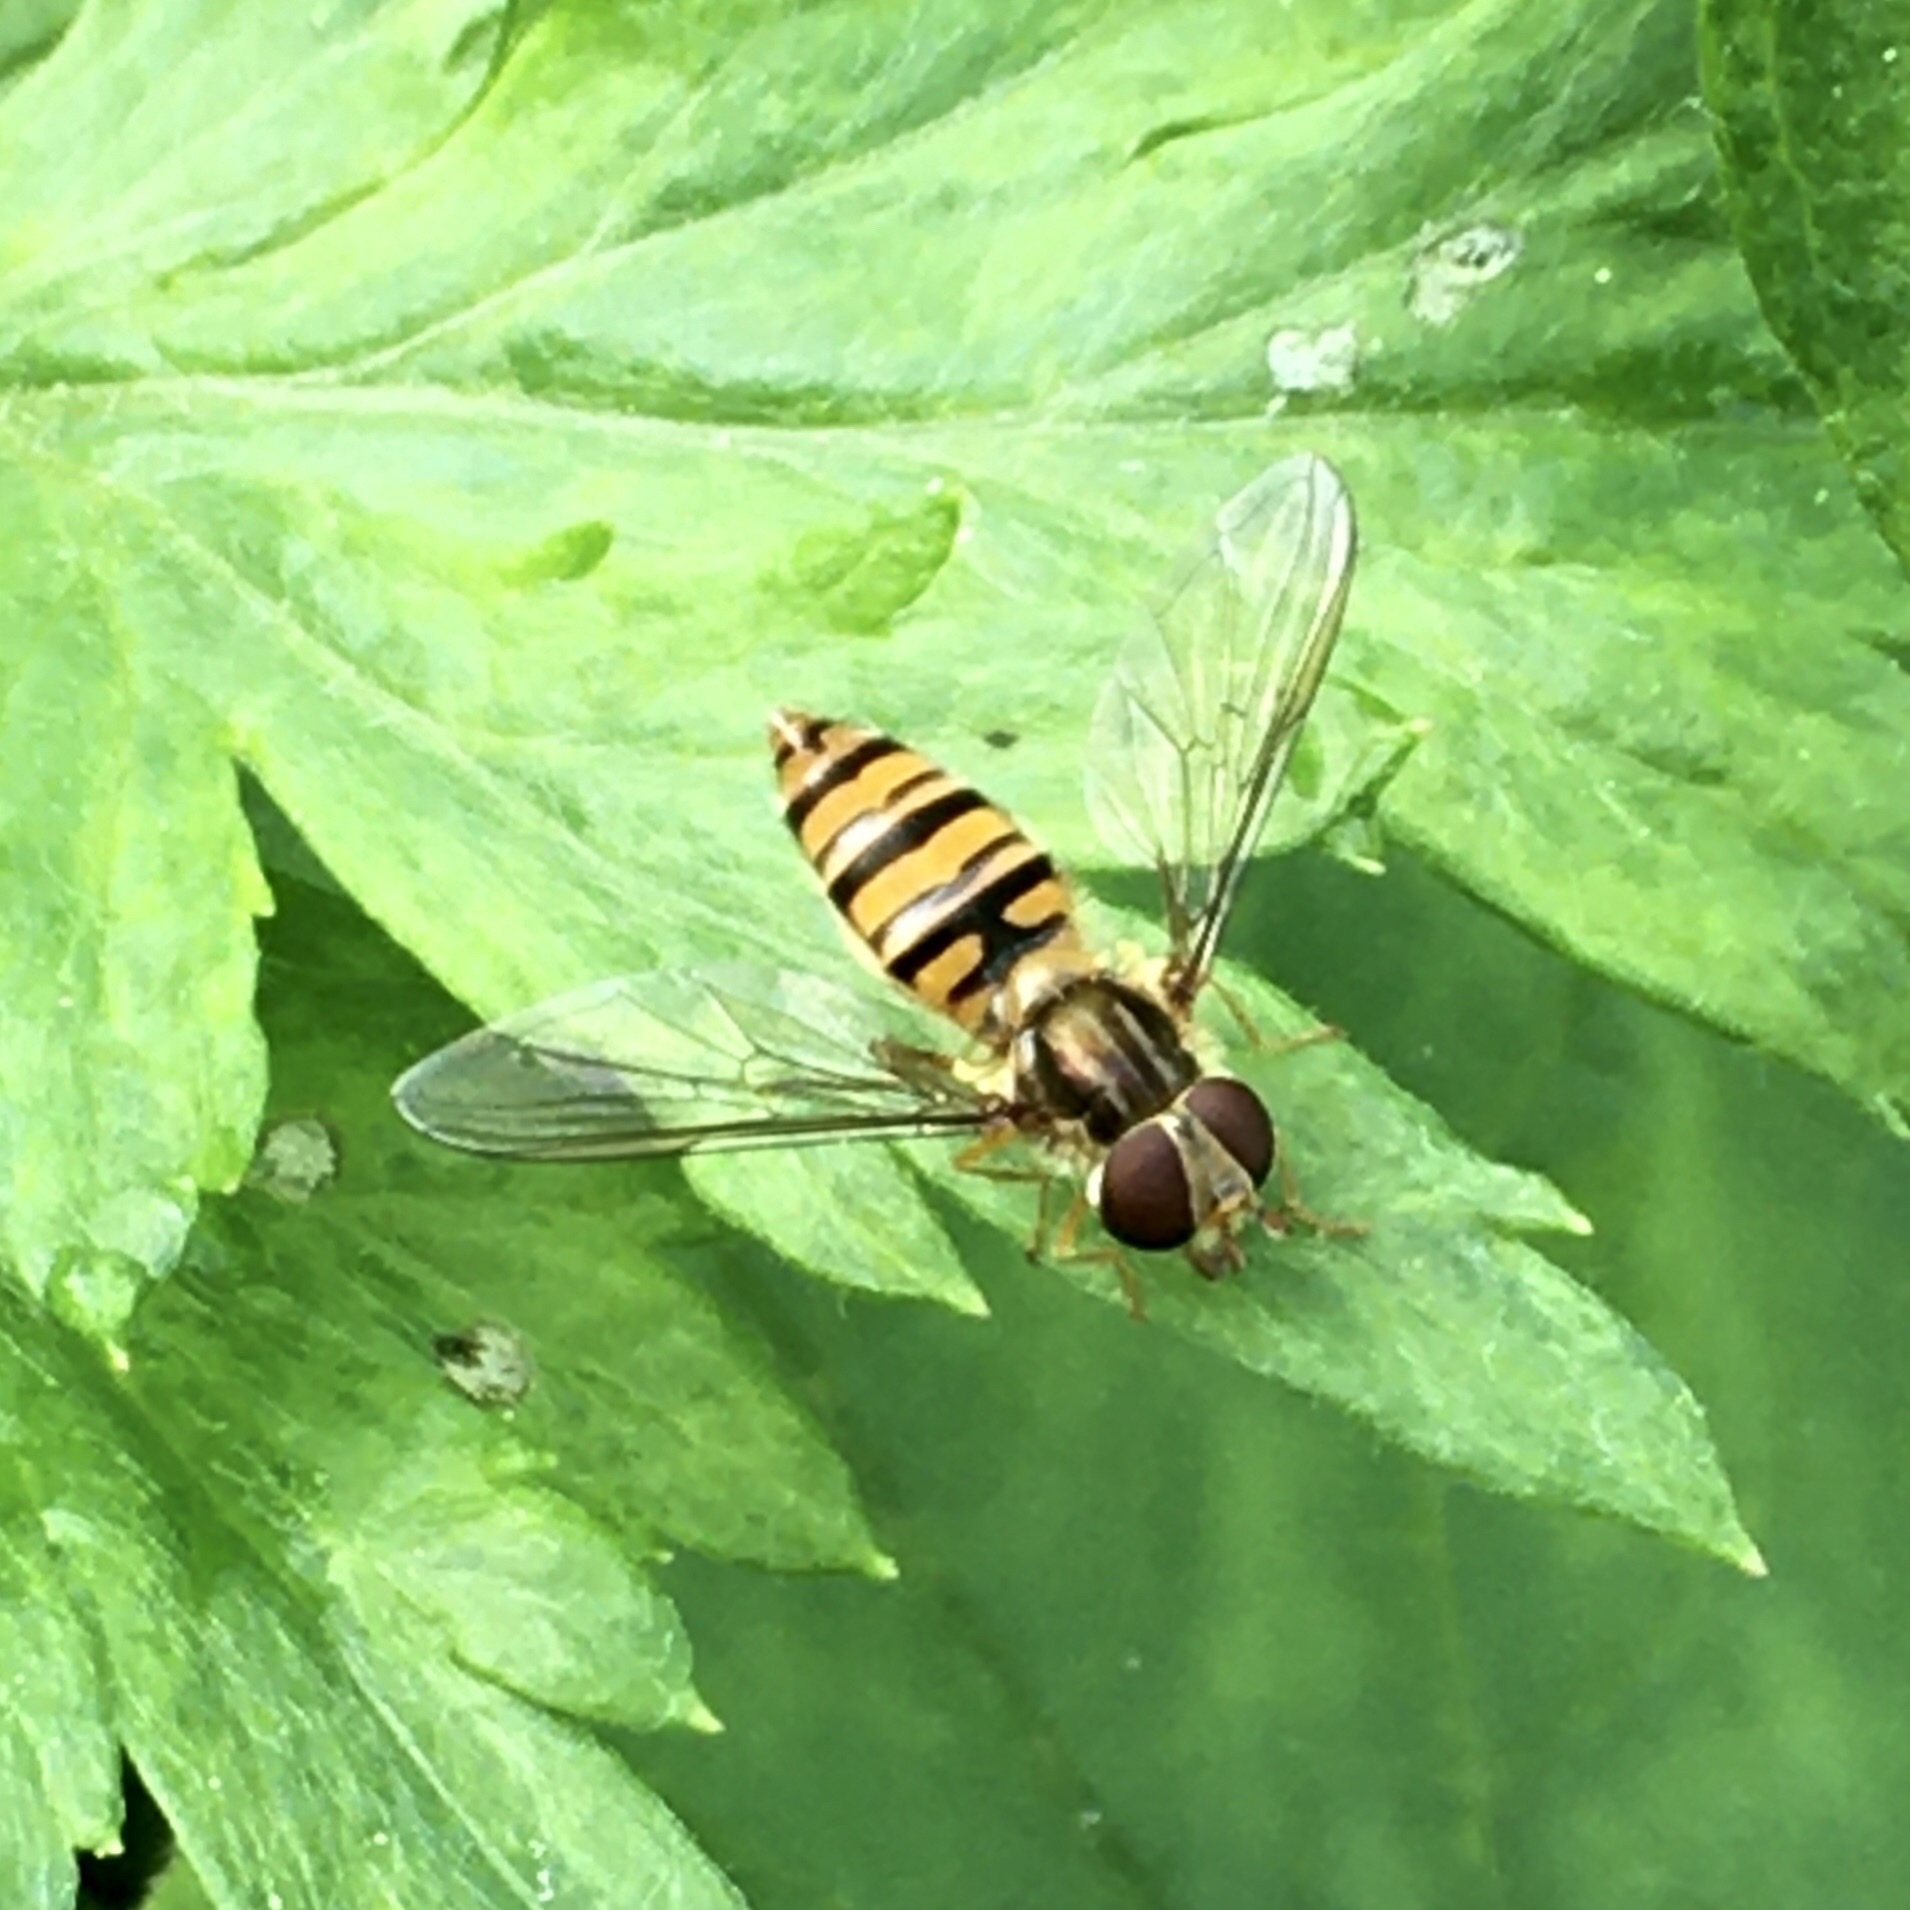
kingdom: Animalia
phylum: Arthropoda
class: Insecta
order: Diptera
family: Syrphidae
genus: Episyrphus
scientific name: Episyrphus balteatus
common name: Marmalade hoverfly
